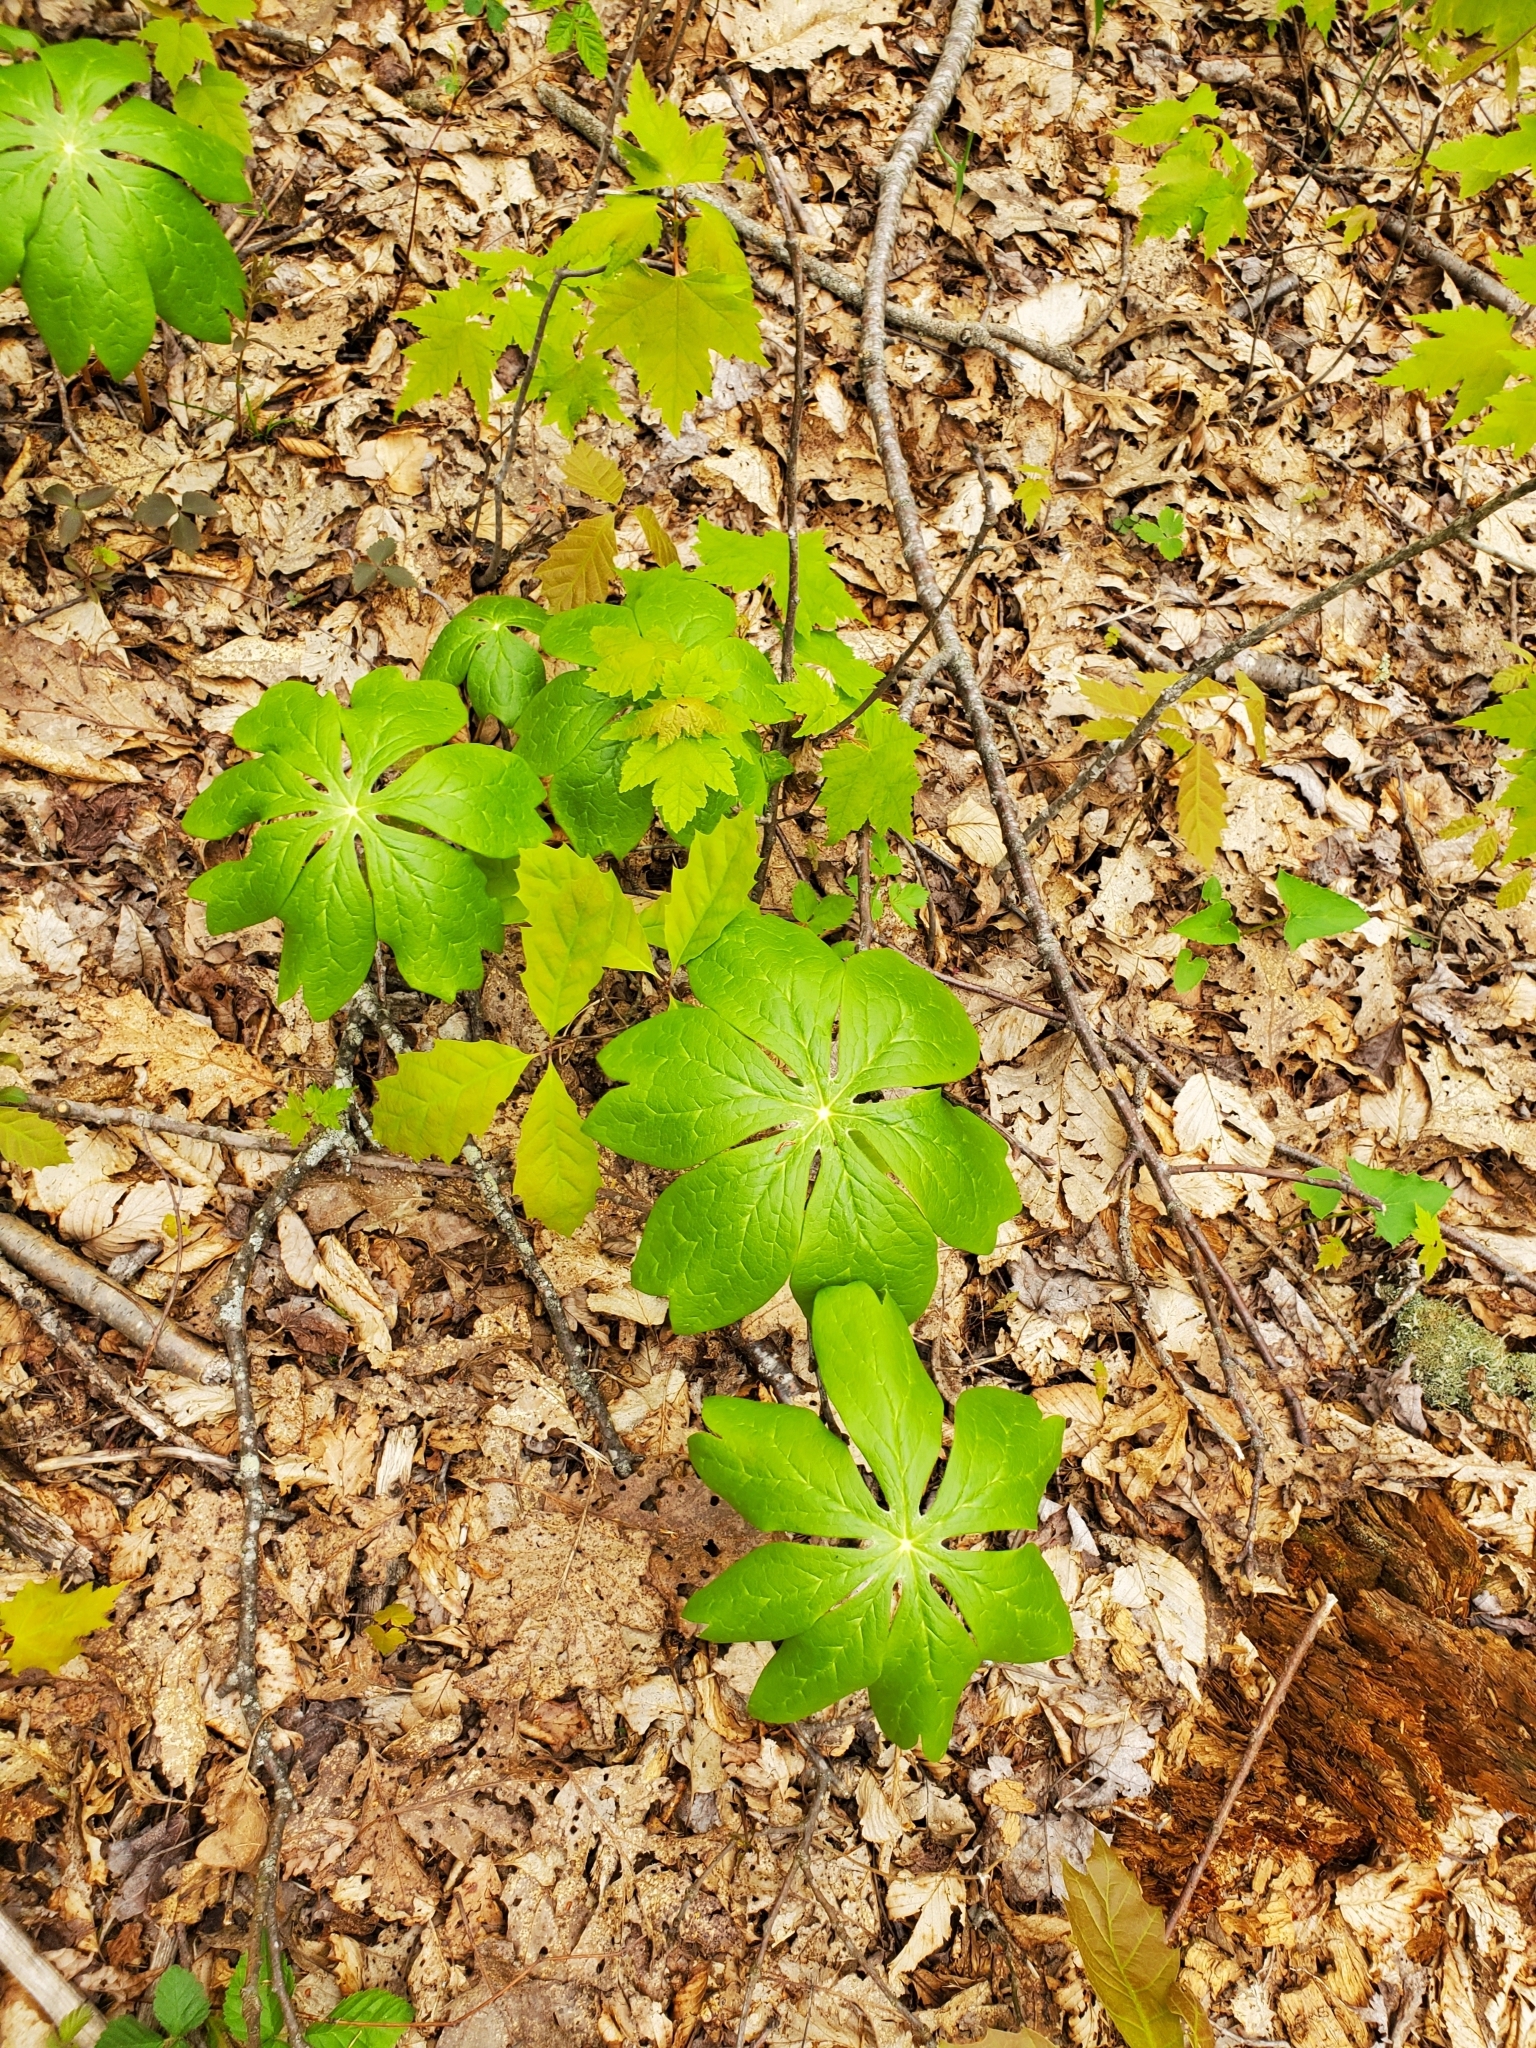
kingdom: Plantae
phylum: Tracheophyta
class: Magnoliopsida
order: Ranunculales
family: Berberidaceae
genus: Podophyllum
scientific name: Podophyllum peltatum
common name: Wild mandrake
